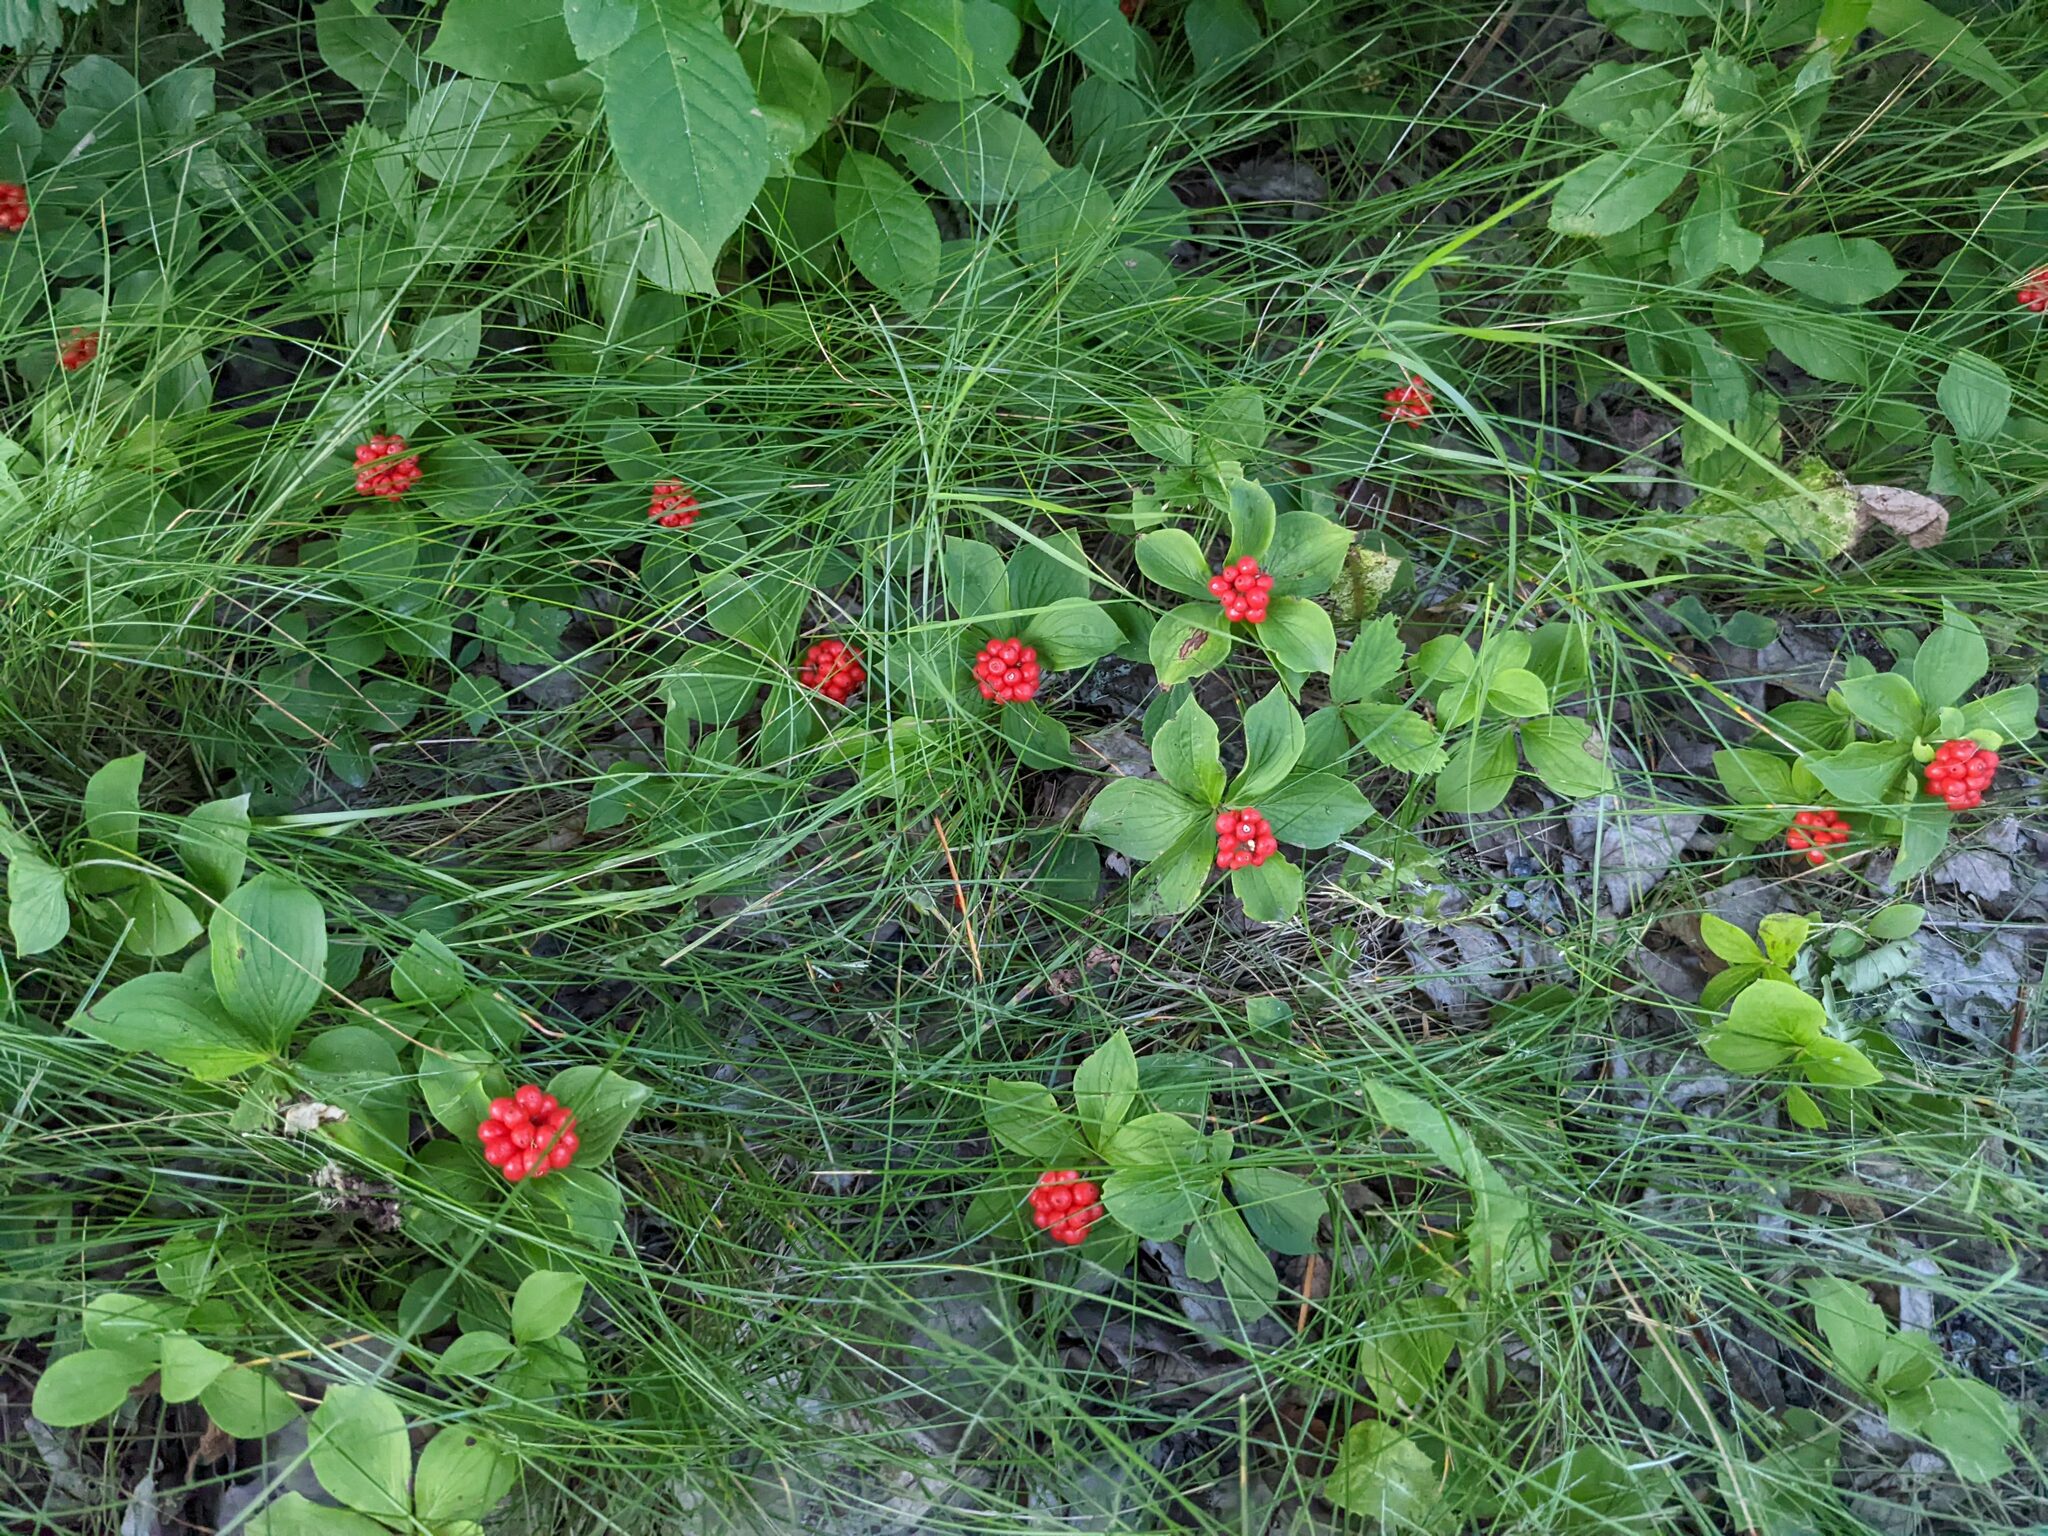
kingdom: Plantae
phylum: Tracheophyta
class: Magnoliopsida
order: Cornales
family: Cornaceae
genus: Cornus
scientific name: Cornus canadensis
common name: Creeping dogwood
